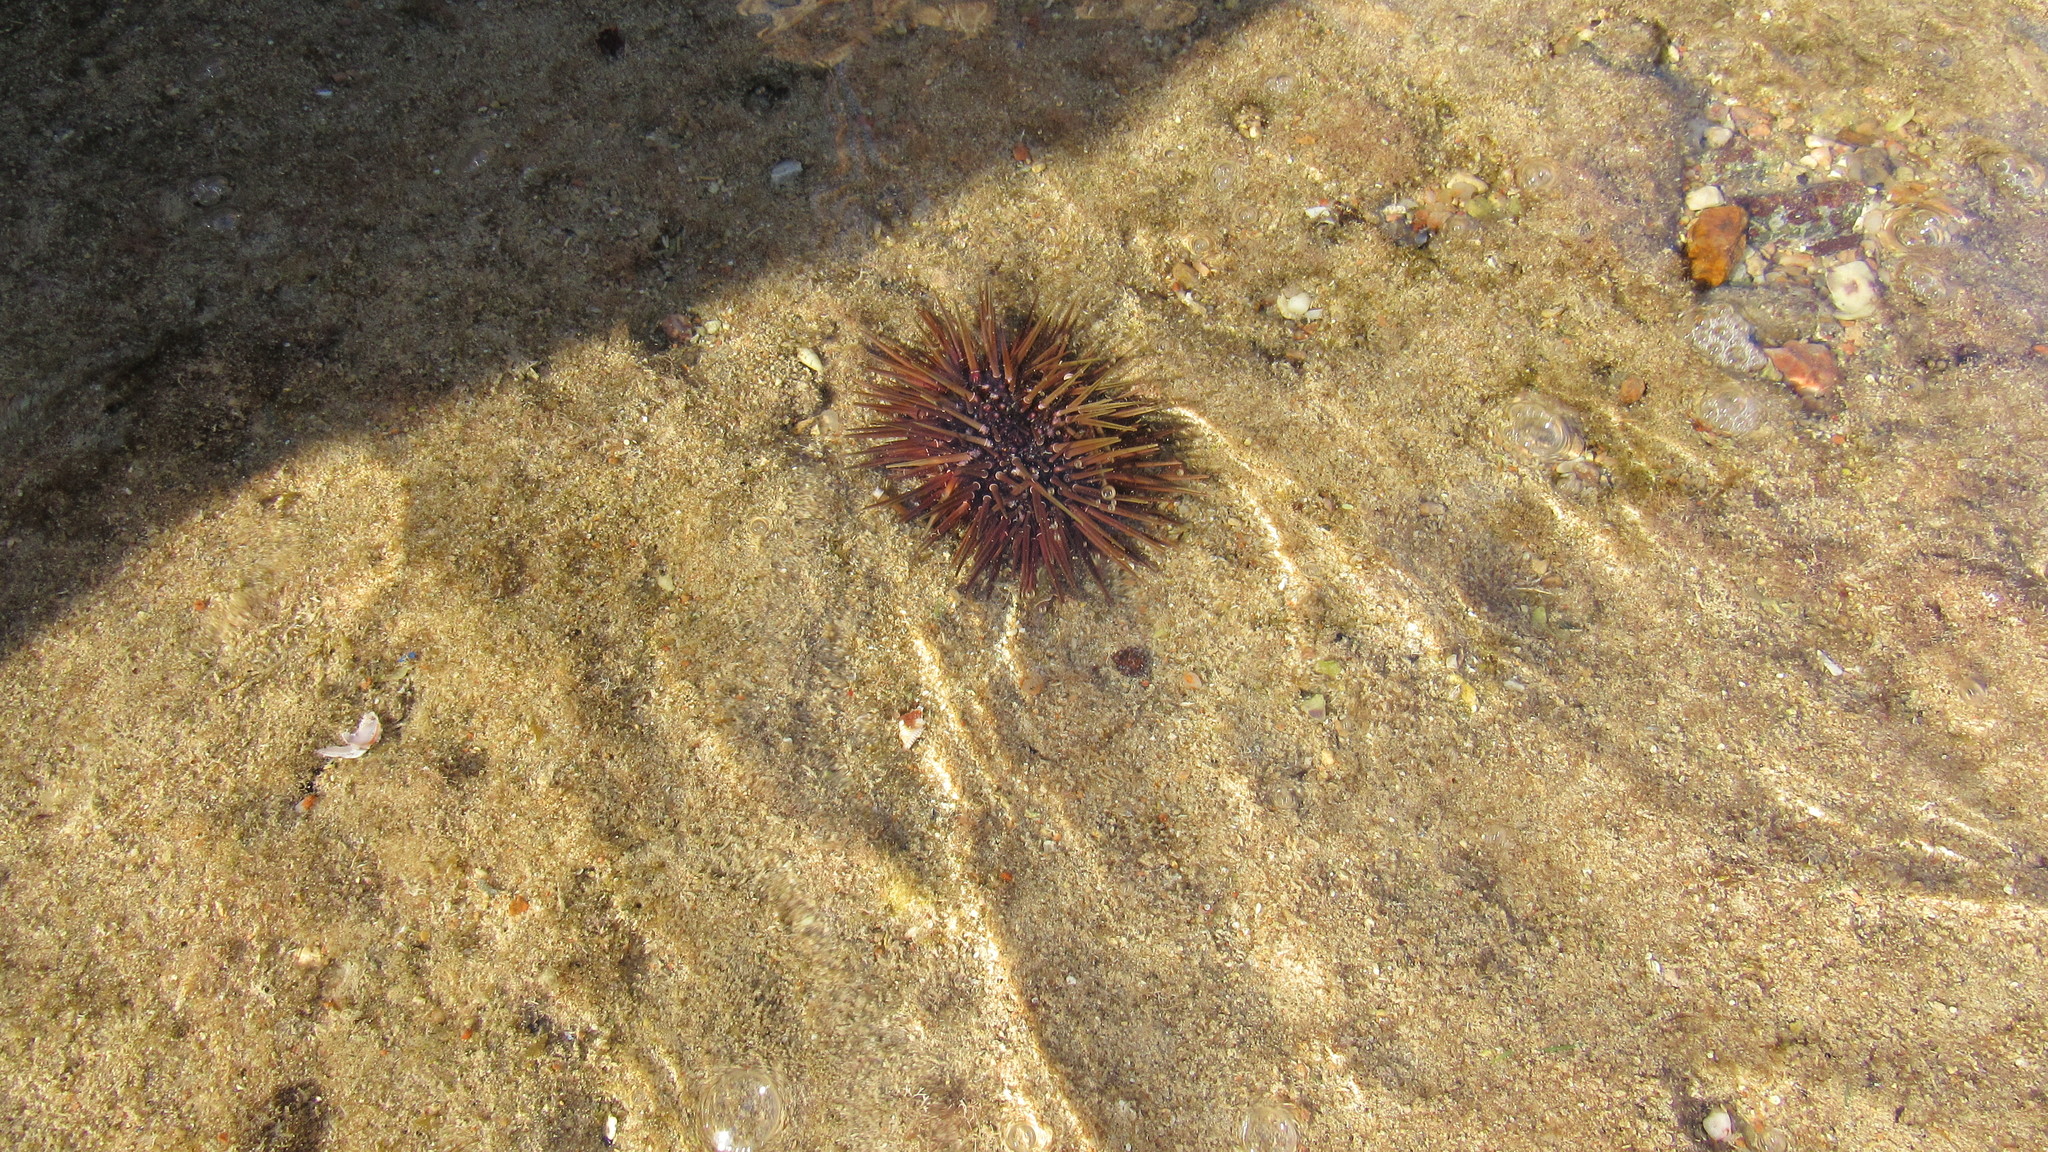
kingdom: Animalia
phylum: Echinodermata
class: Echinoidea
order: Camarodonta
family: Echinometridae
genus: Echinometra
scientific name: Echinometra mathaei
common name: Rock-boring urchin
